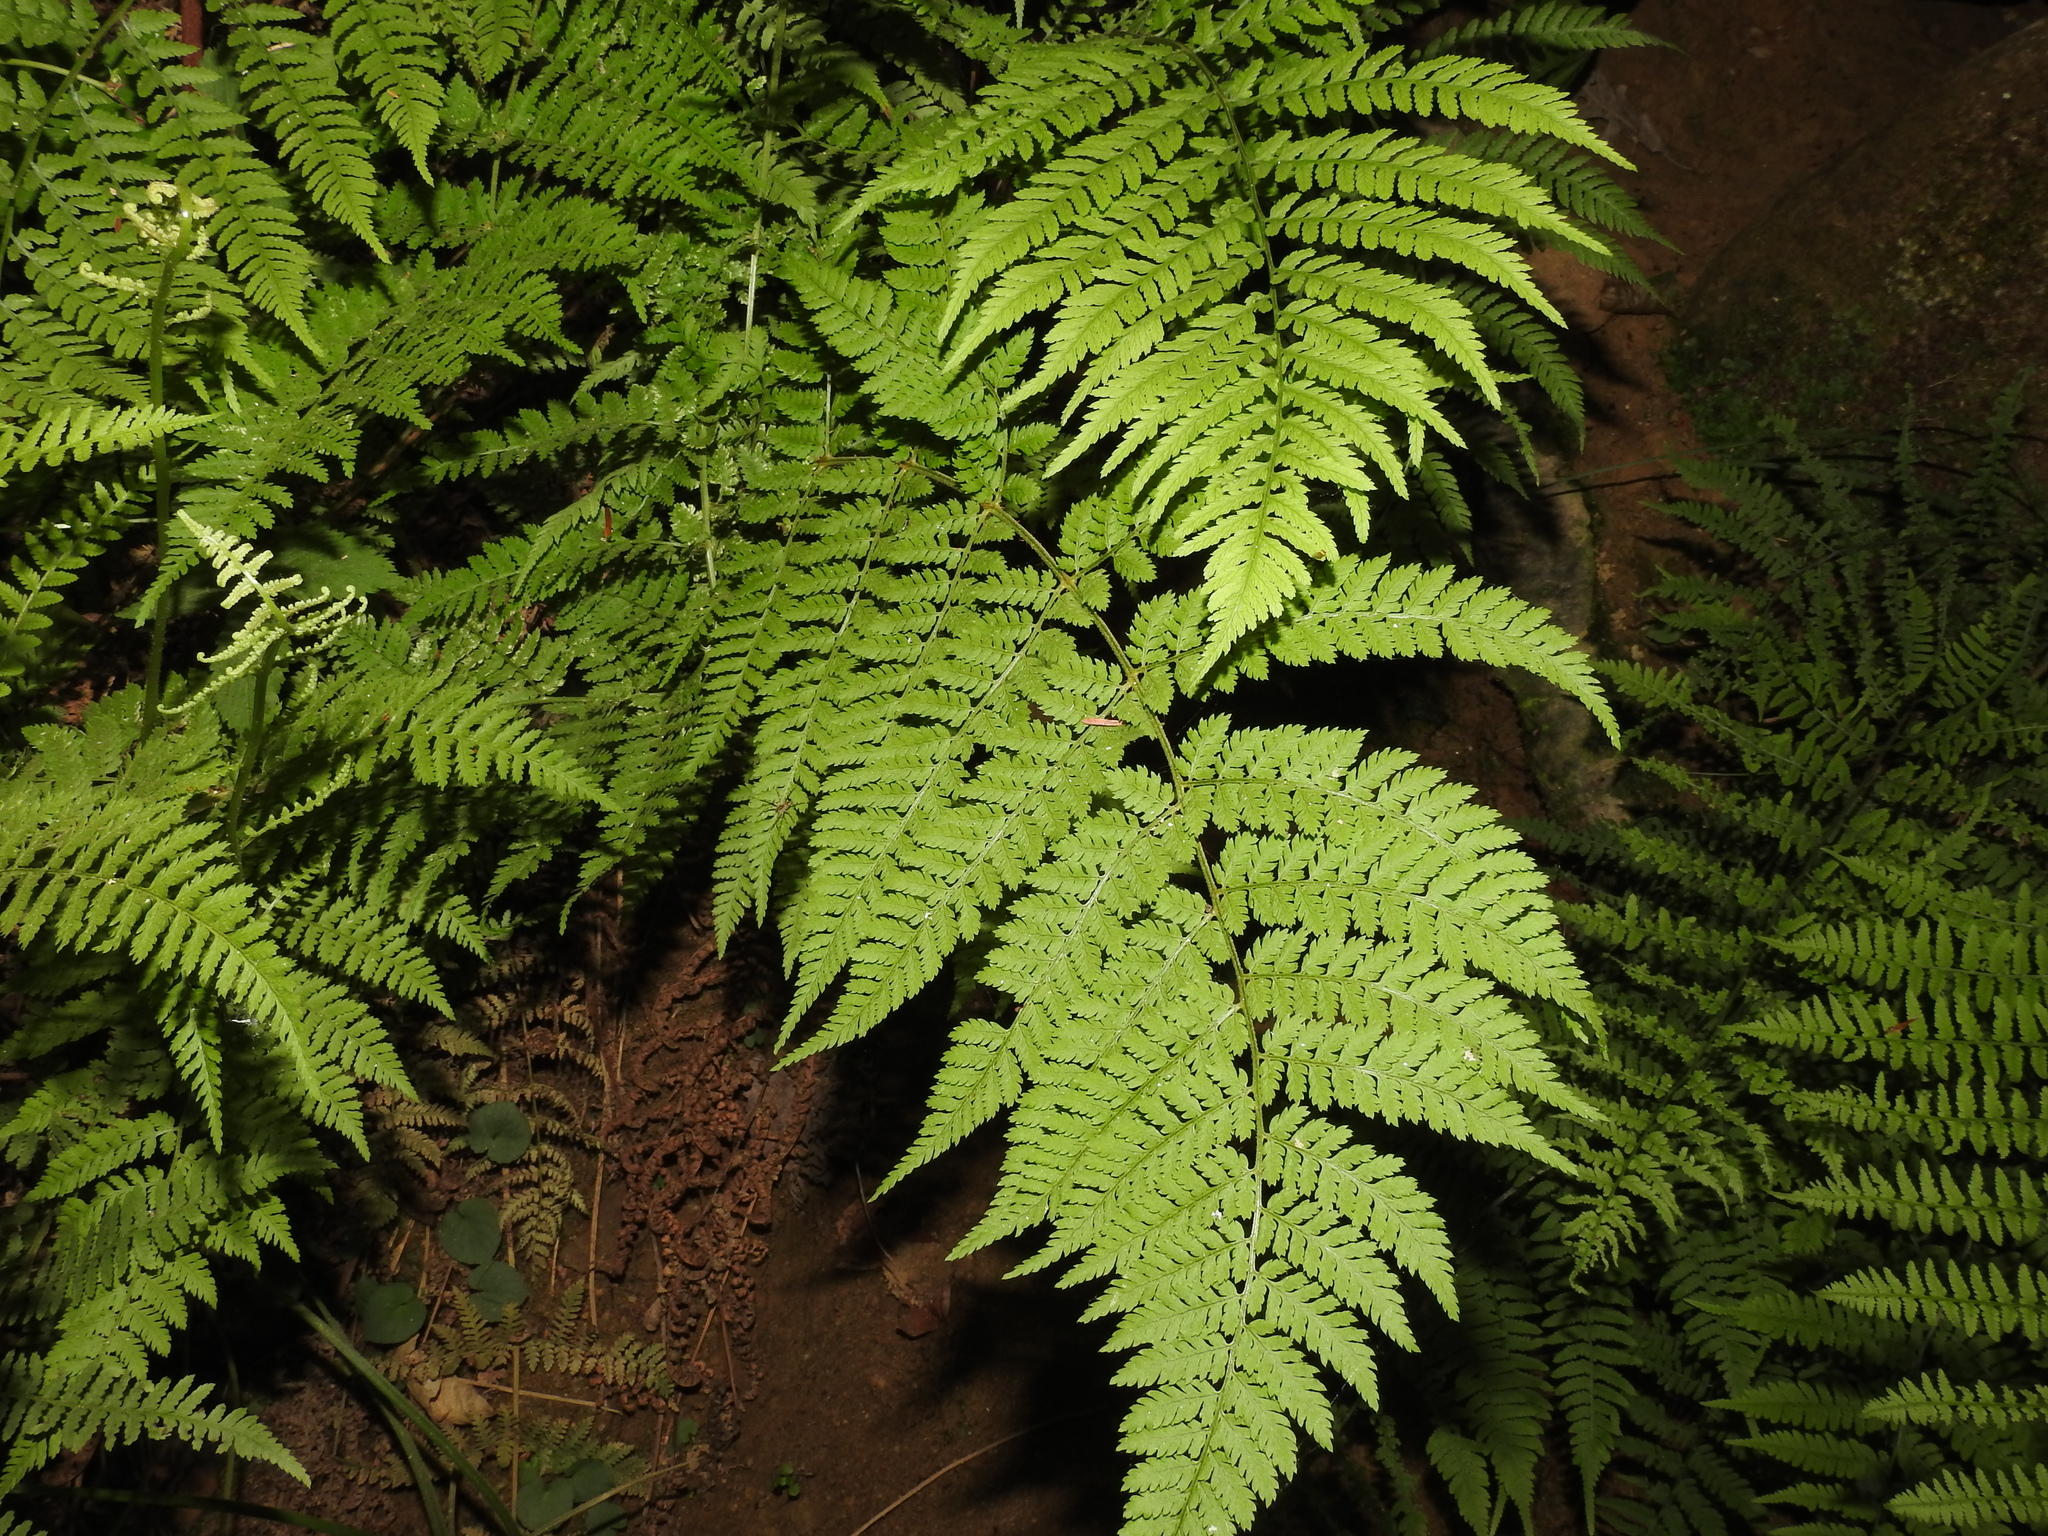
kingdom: Plantae
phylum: Tracheophyta
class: Polypodiopsida
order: Polypodiales
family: Dryopteridaceae
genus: Dryopteris
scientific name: Dryopteris intermedia
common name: Evergreen wood fern
